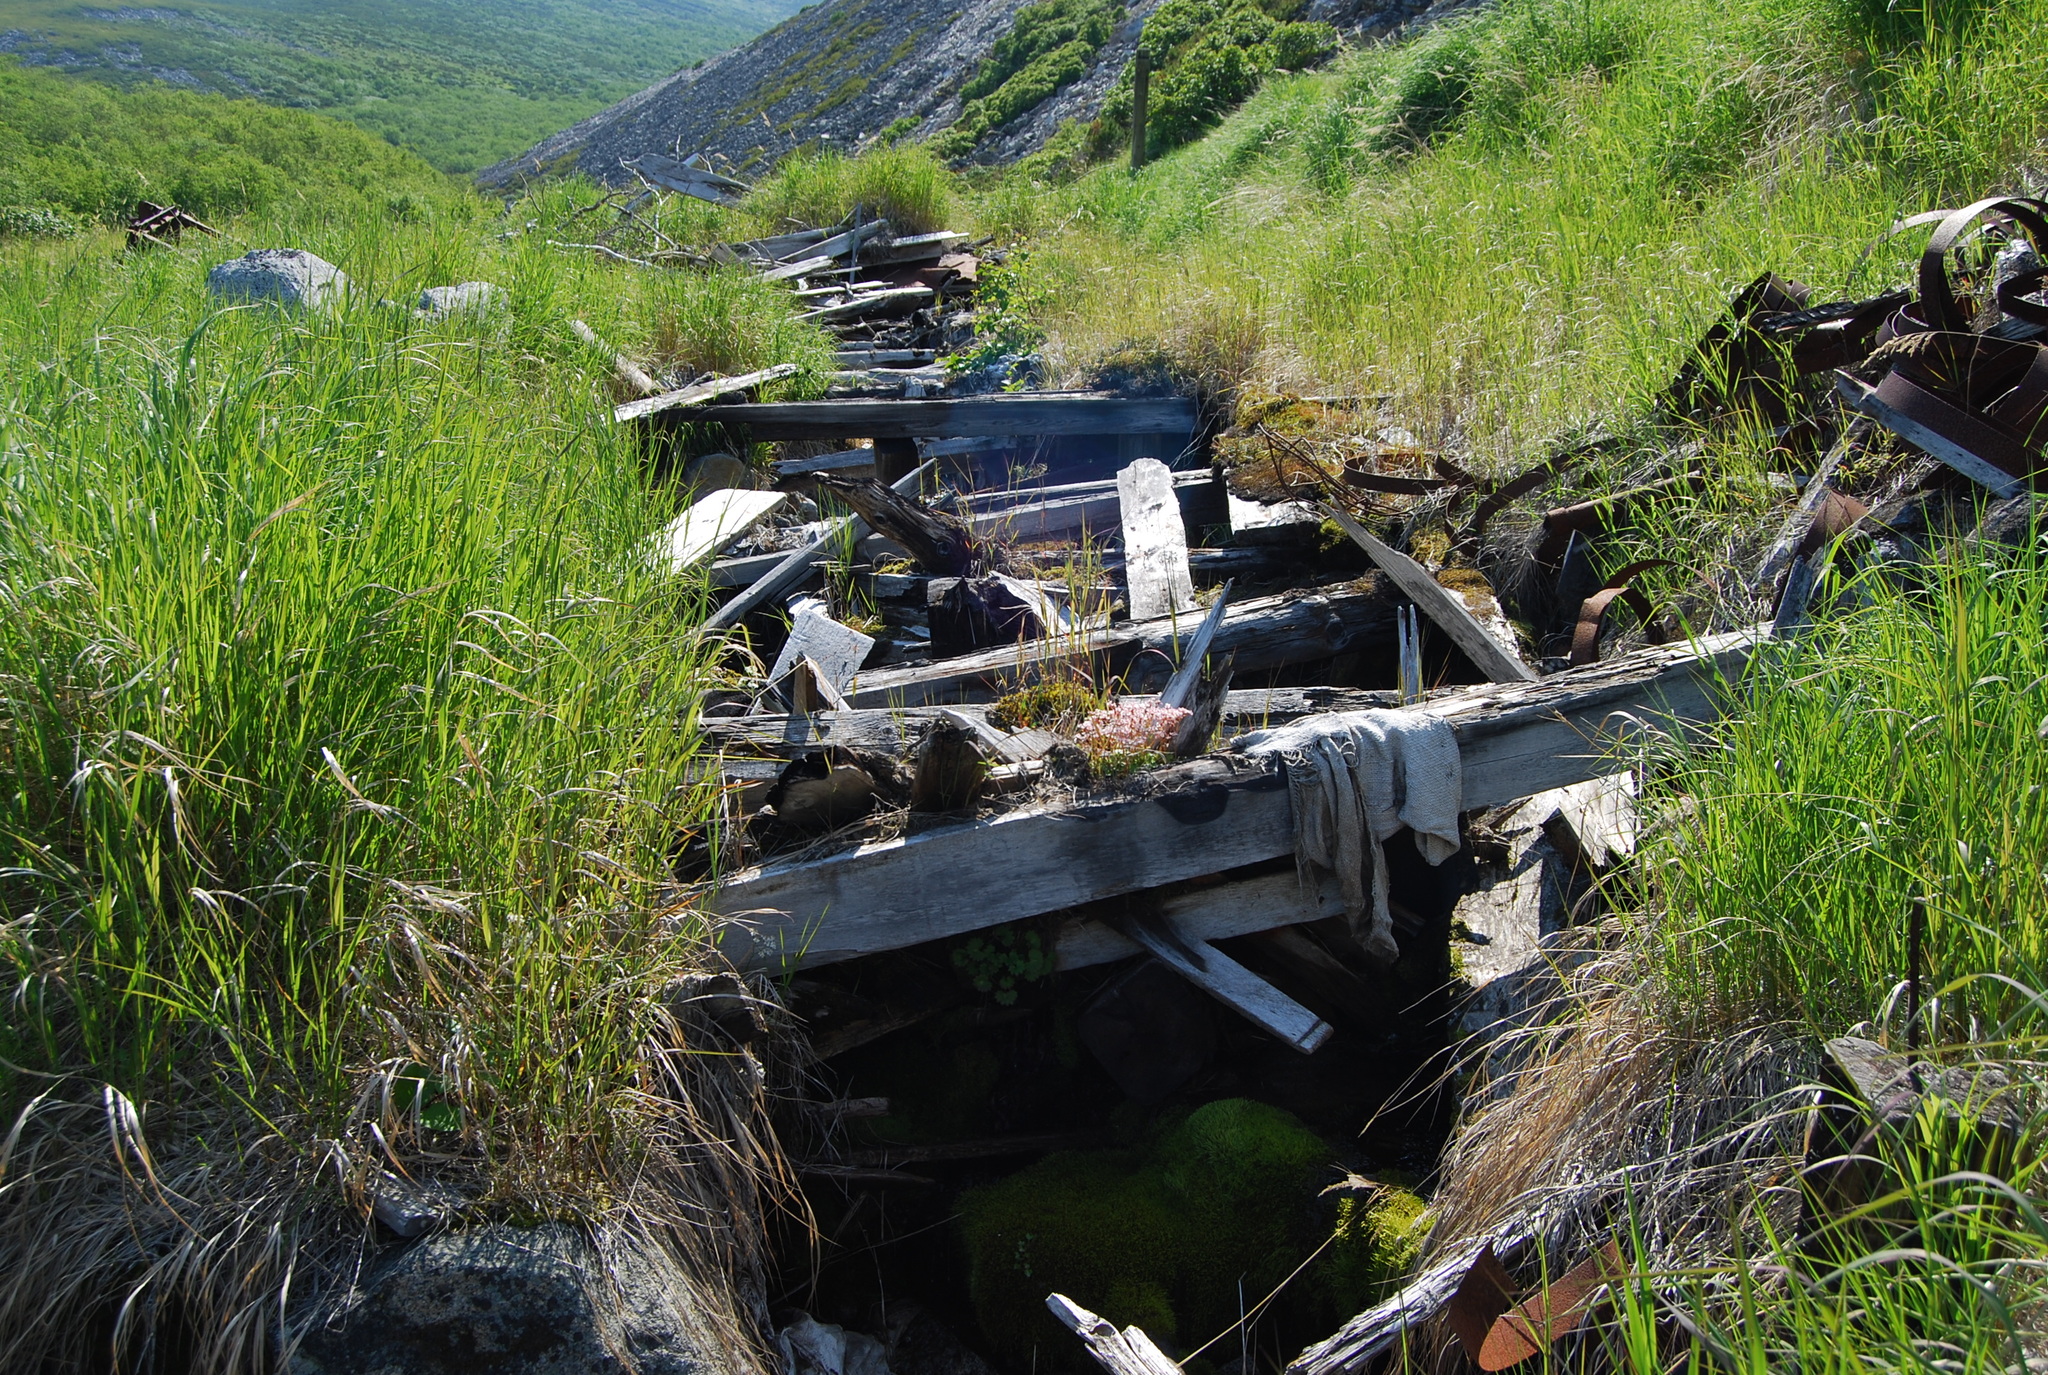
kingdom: Plantae
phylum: Tracheophyta
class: Magnoliopsida
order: Saxifragales
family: Saxifragaceae
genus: Micranthes
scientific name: Micranthes nudicaulis
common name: Nakedstem saxifrage
